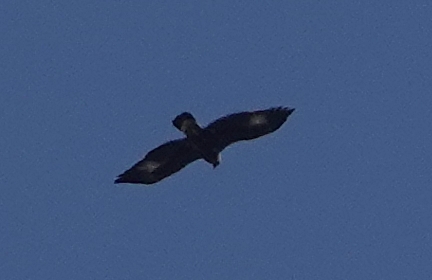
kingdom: Animalia
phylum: Chordata
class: Aves
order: Accipitriformes
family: Accipitridae
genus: Aquila
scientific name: Aquila chrysaetos
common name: Golden eagle
